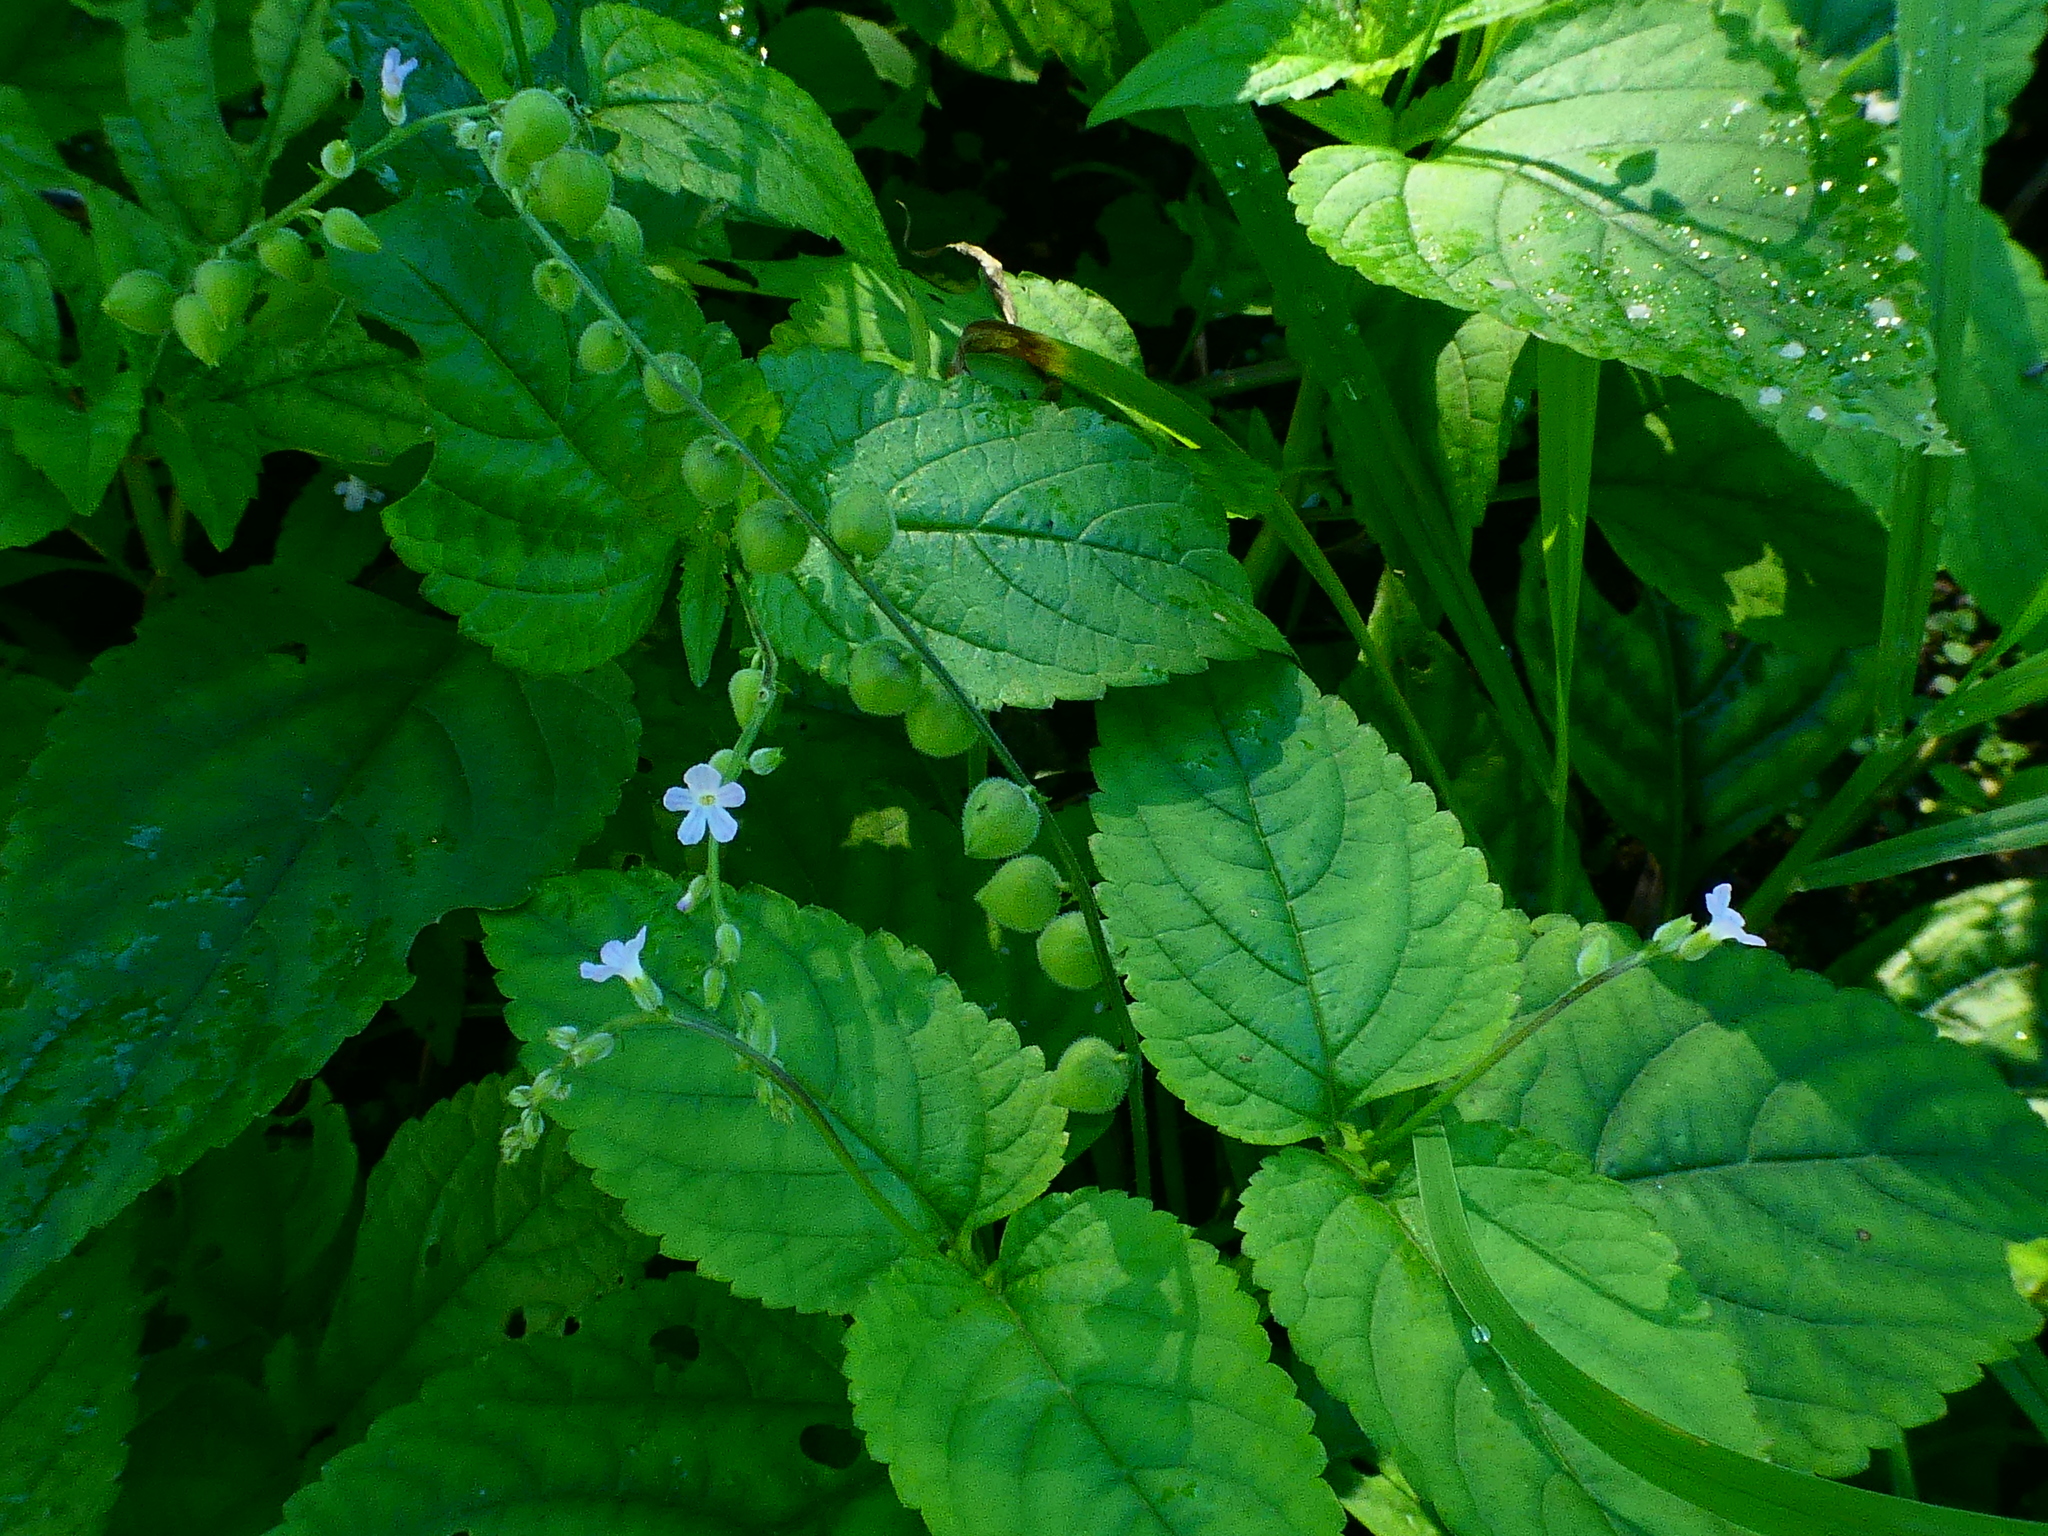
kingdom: Plantae
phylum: Tracheophyta
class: Magnoliopsida
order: Lamiales
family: Verbenaceae
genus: Priva
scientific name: Priva lappulacea
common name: Fasten-'pon-coat
